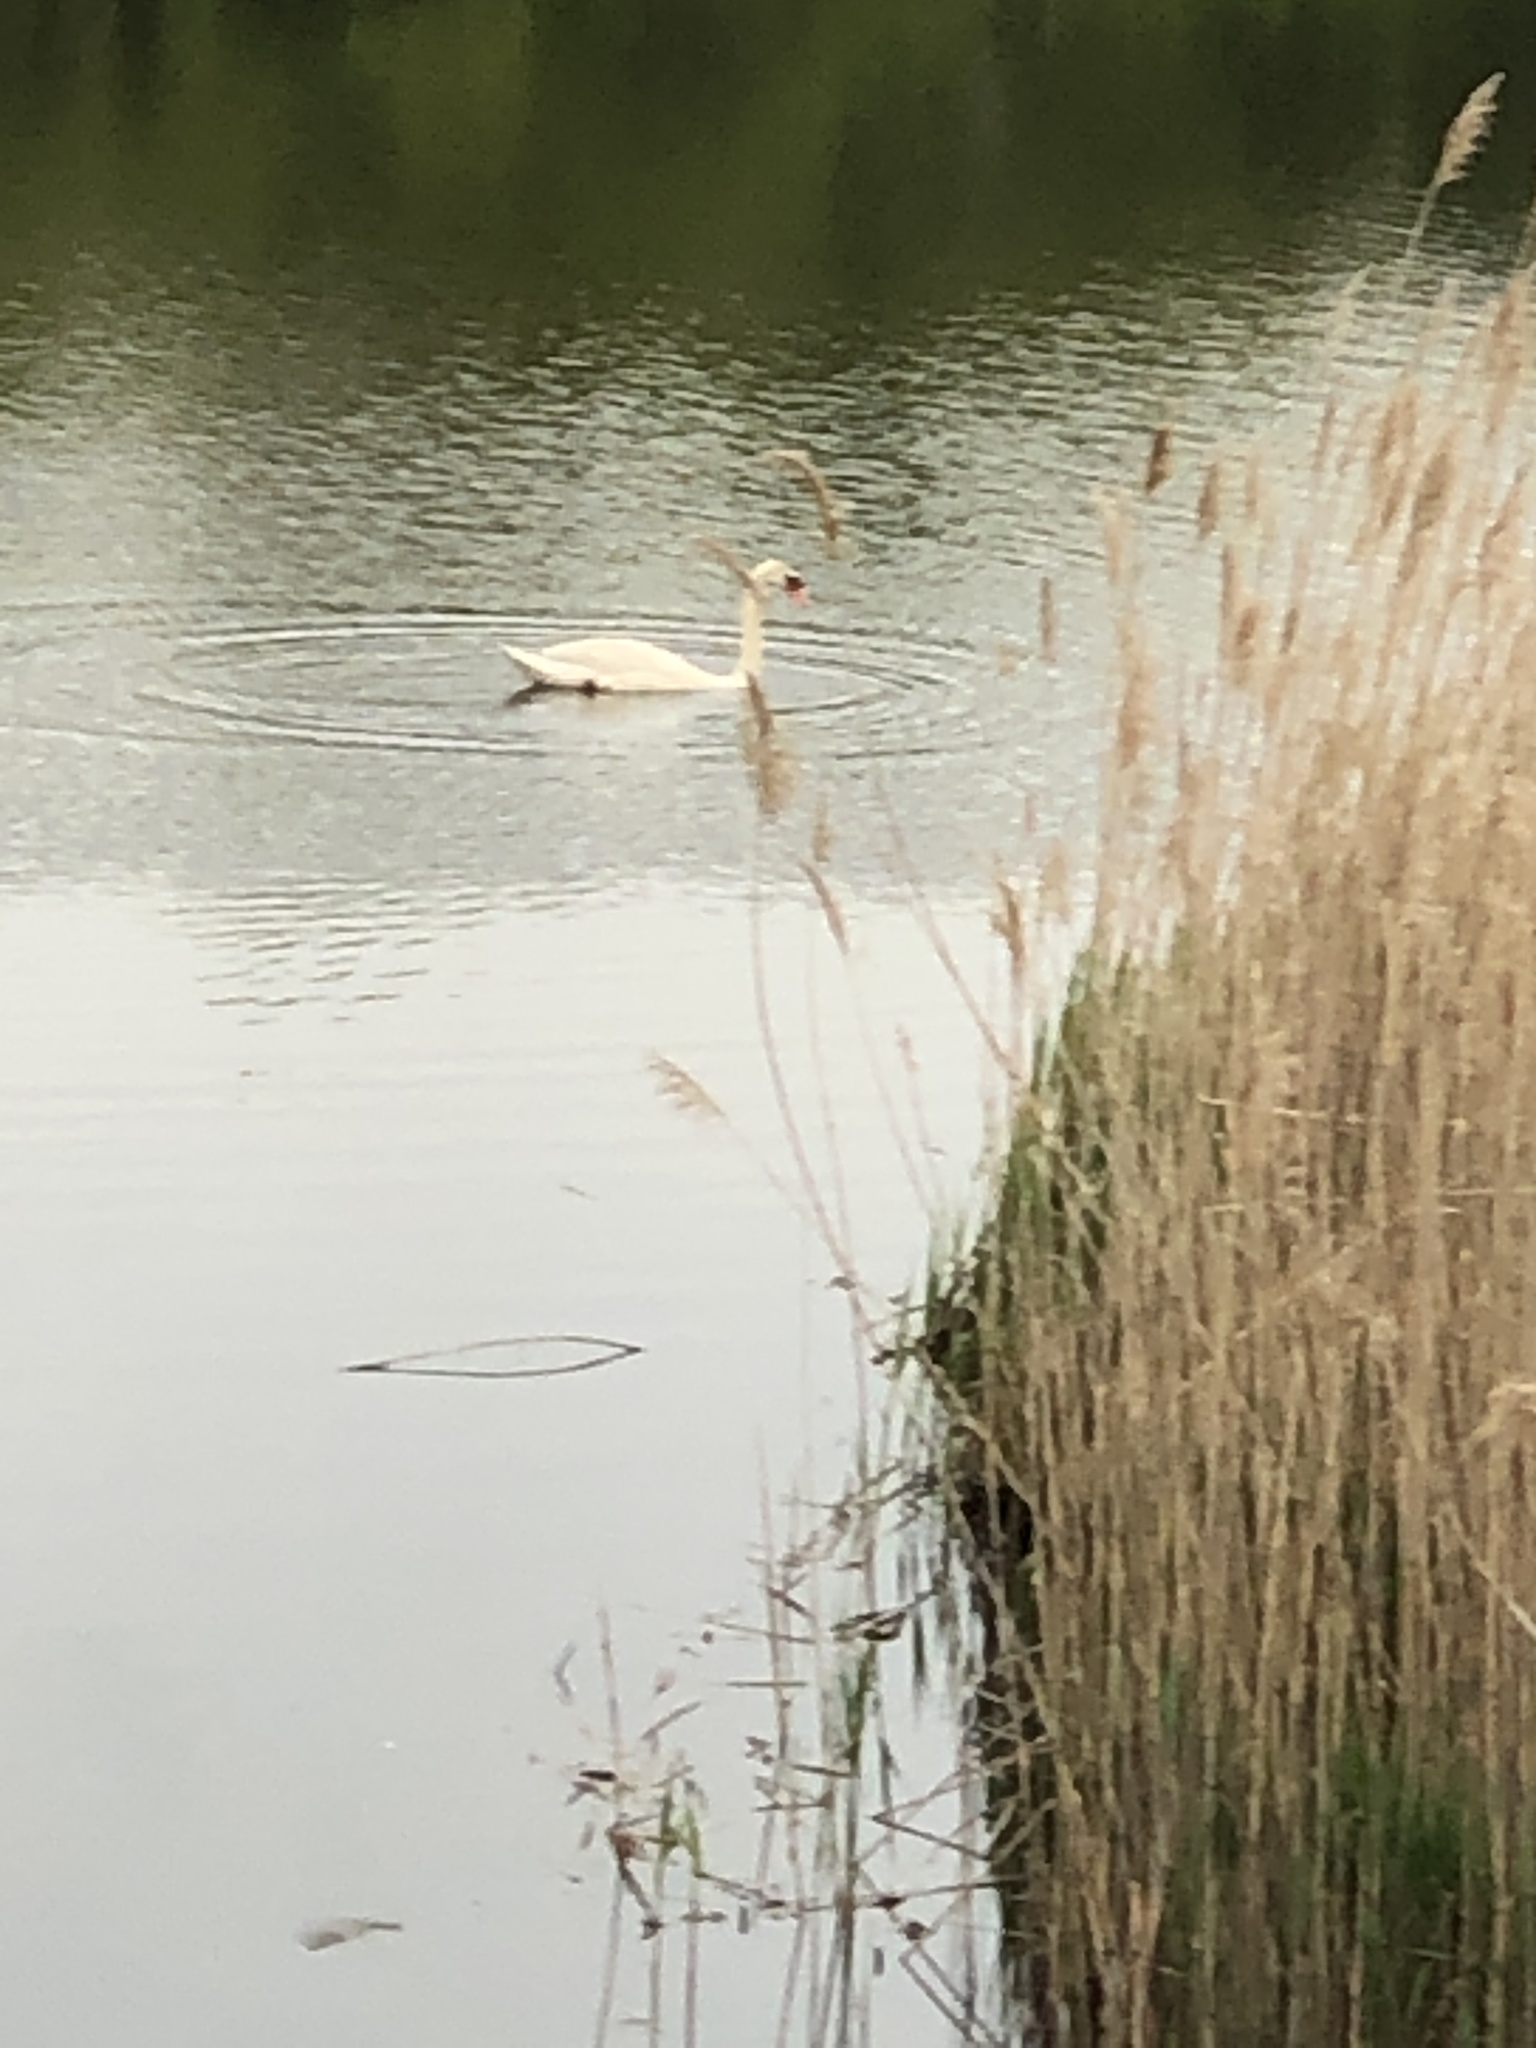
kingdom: Animalia
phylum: Chordata
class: Aves
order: Anseriformes
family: Anatidae
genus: Cygnus
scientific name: Cygnus olor
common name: Mute swan
